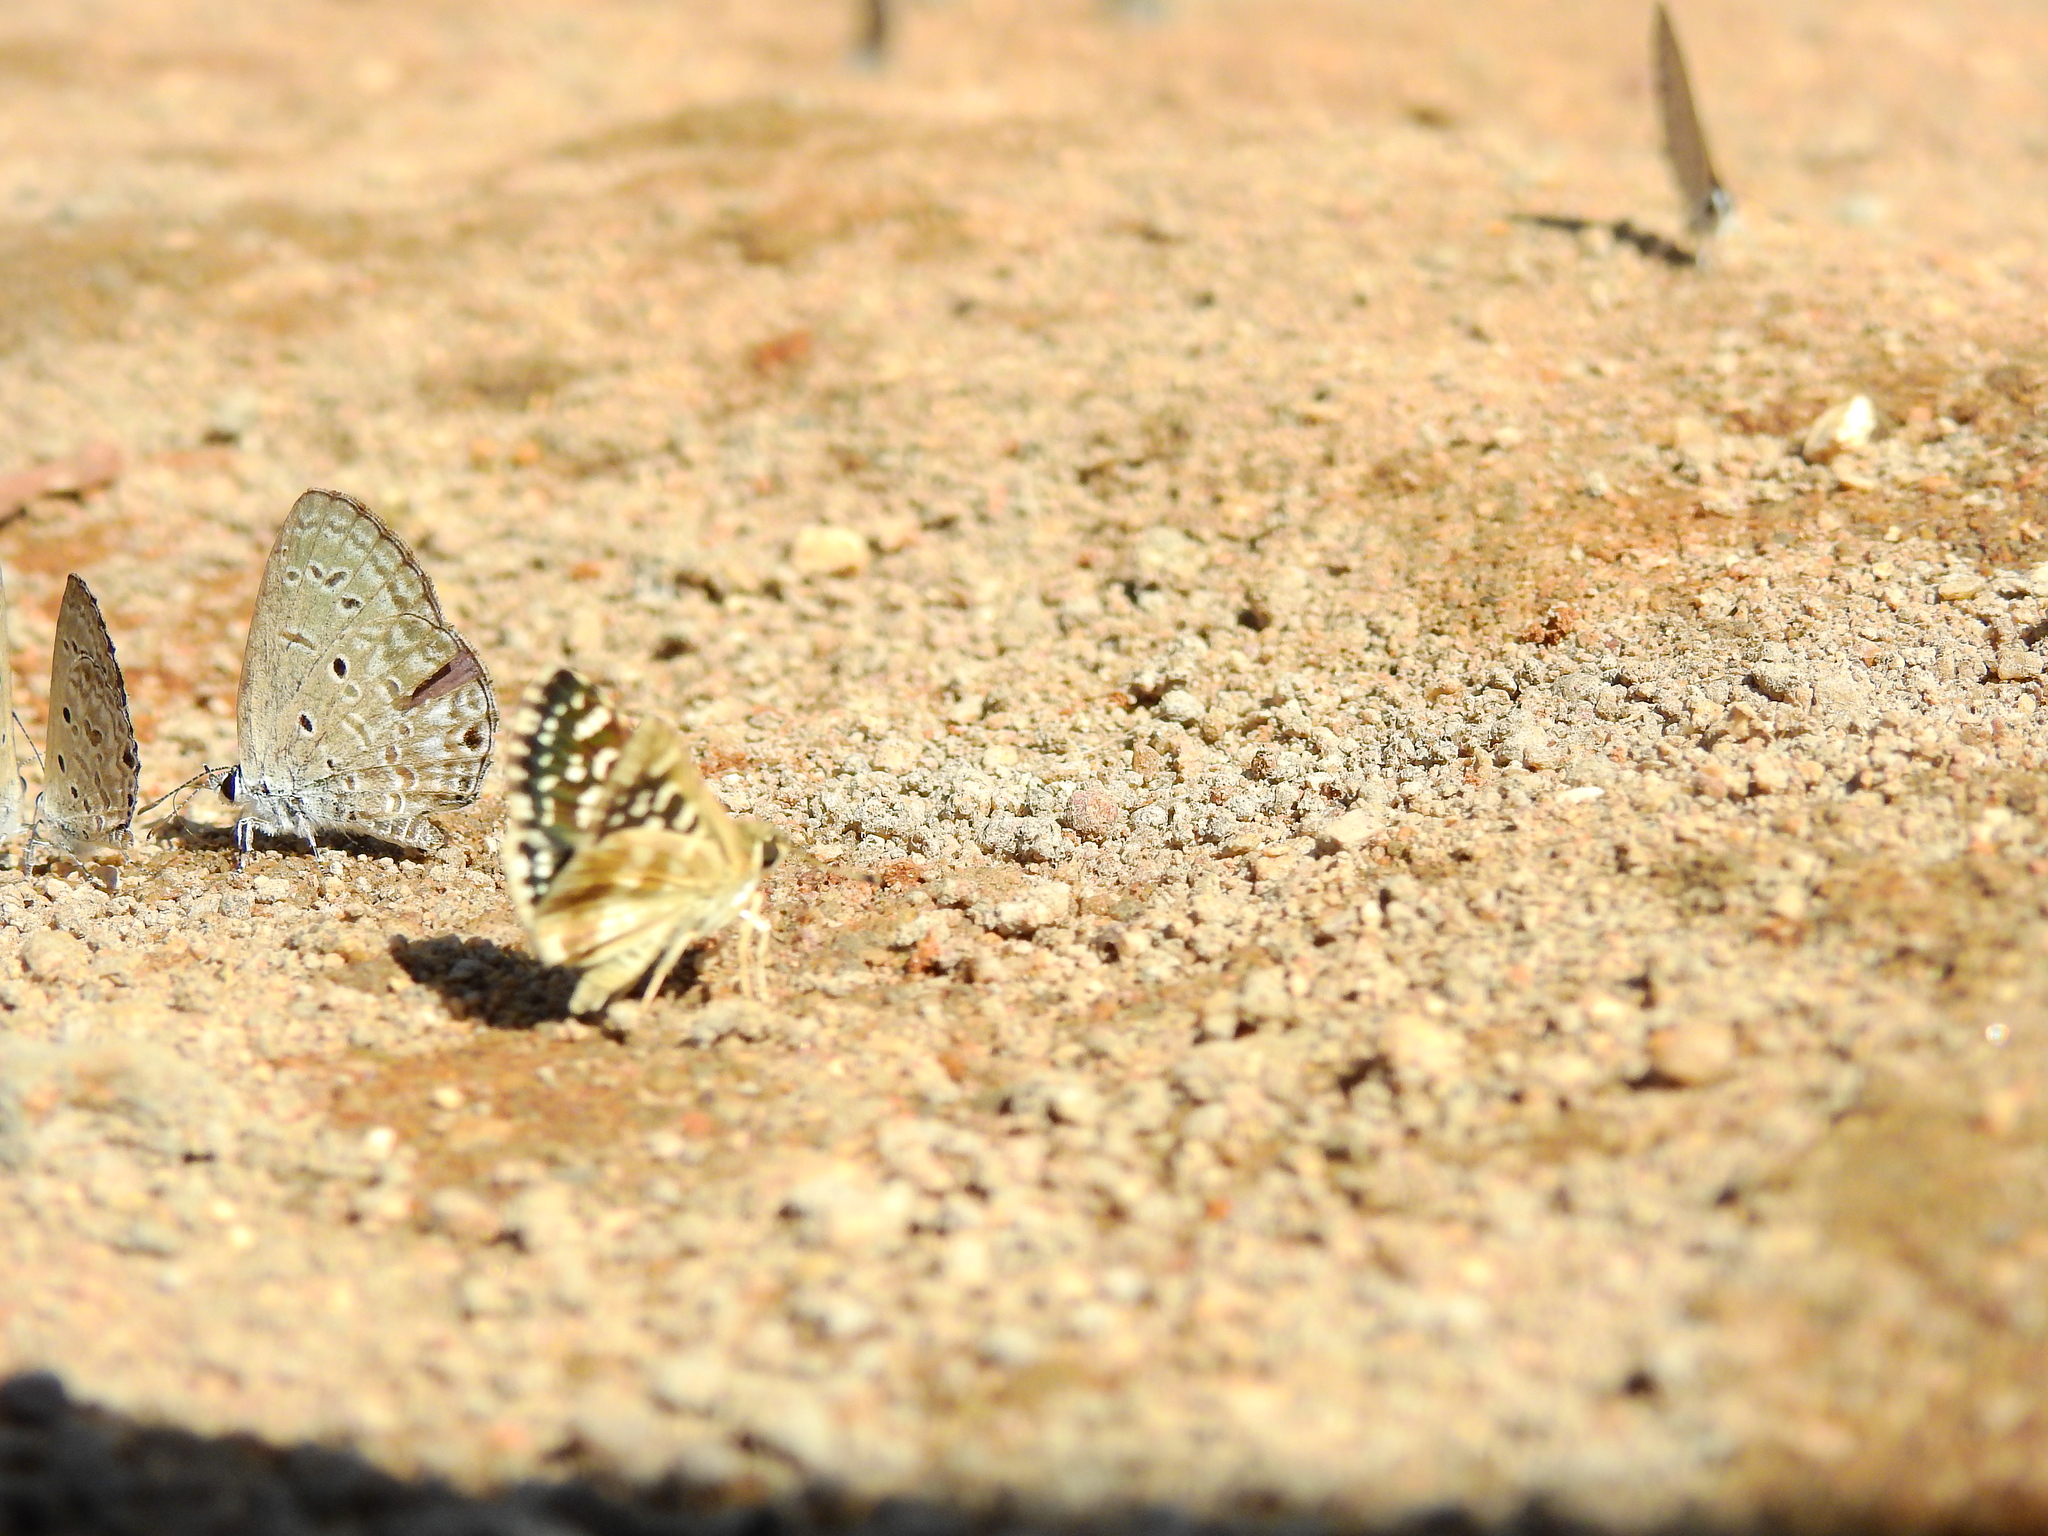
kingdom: Animalia
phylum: Arthropoda
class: Insecta
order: Lepidoptera
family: Hesperiidae
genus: Spialia
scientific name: Spialia galba
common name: Indian skipper
